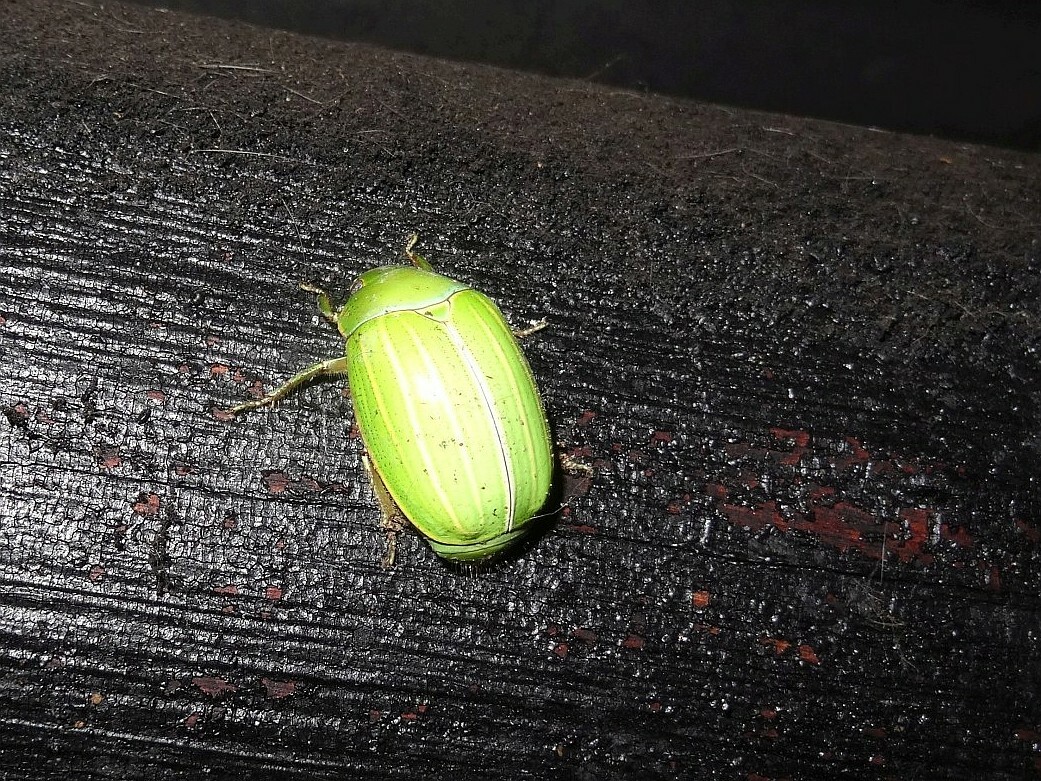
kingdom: Animalia
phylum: Arthropoda
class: Insecta
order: Coleoptera
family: Scarabaeidae
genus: Platycoelia
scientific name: Platycoelia inflata
